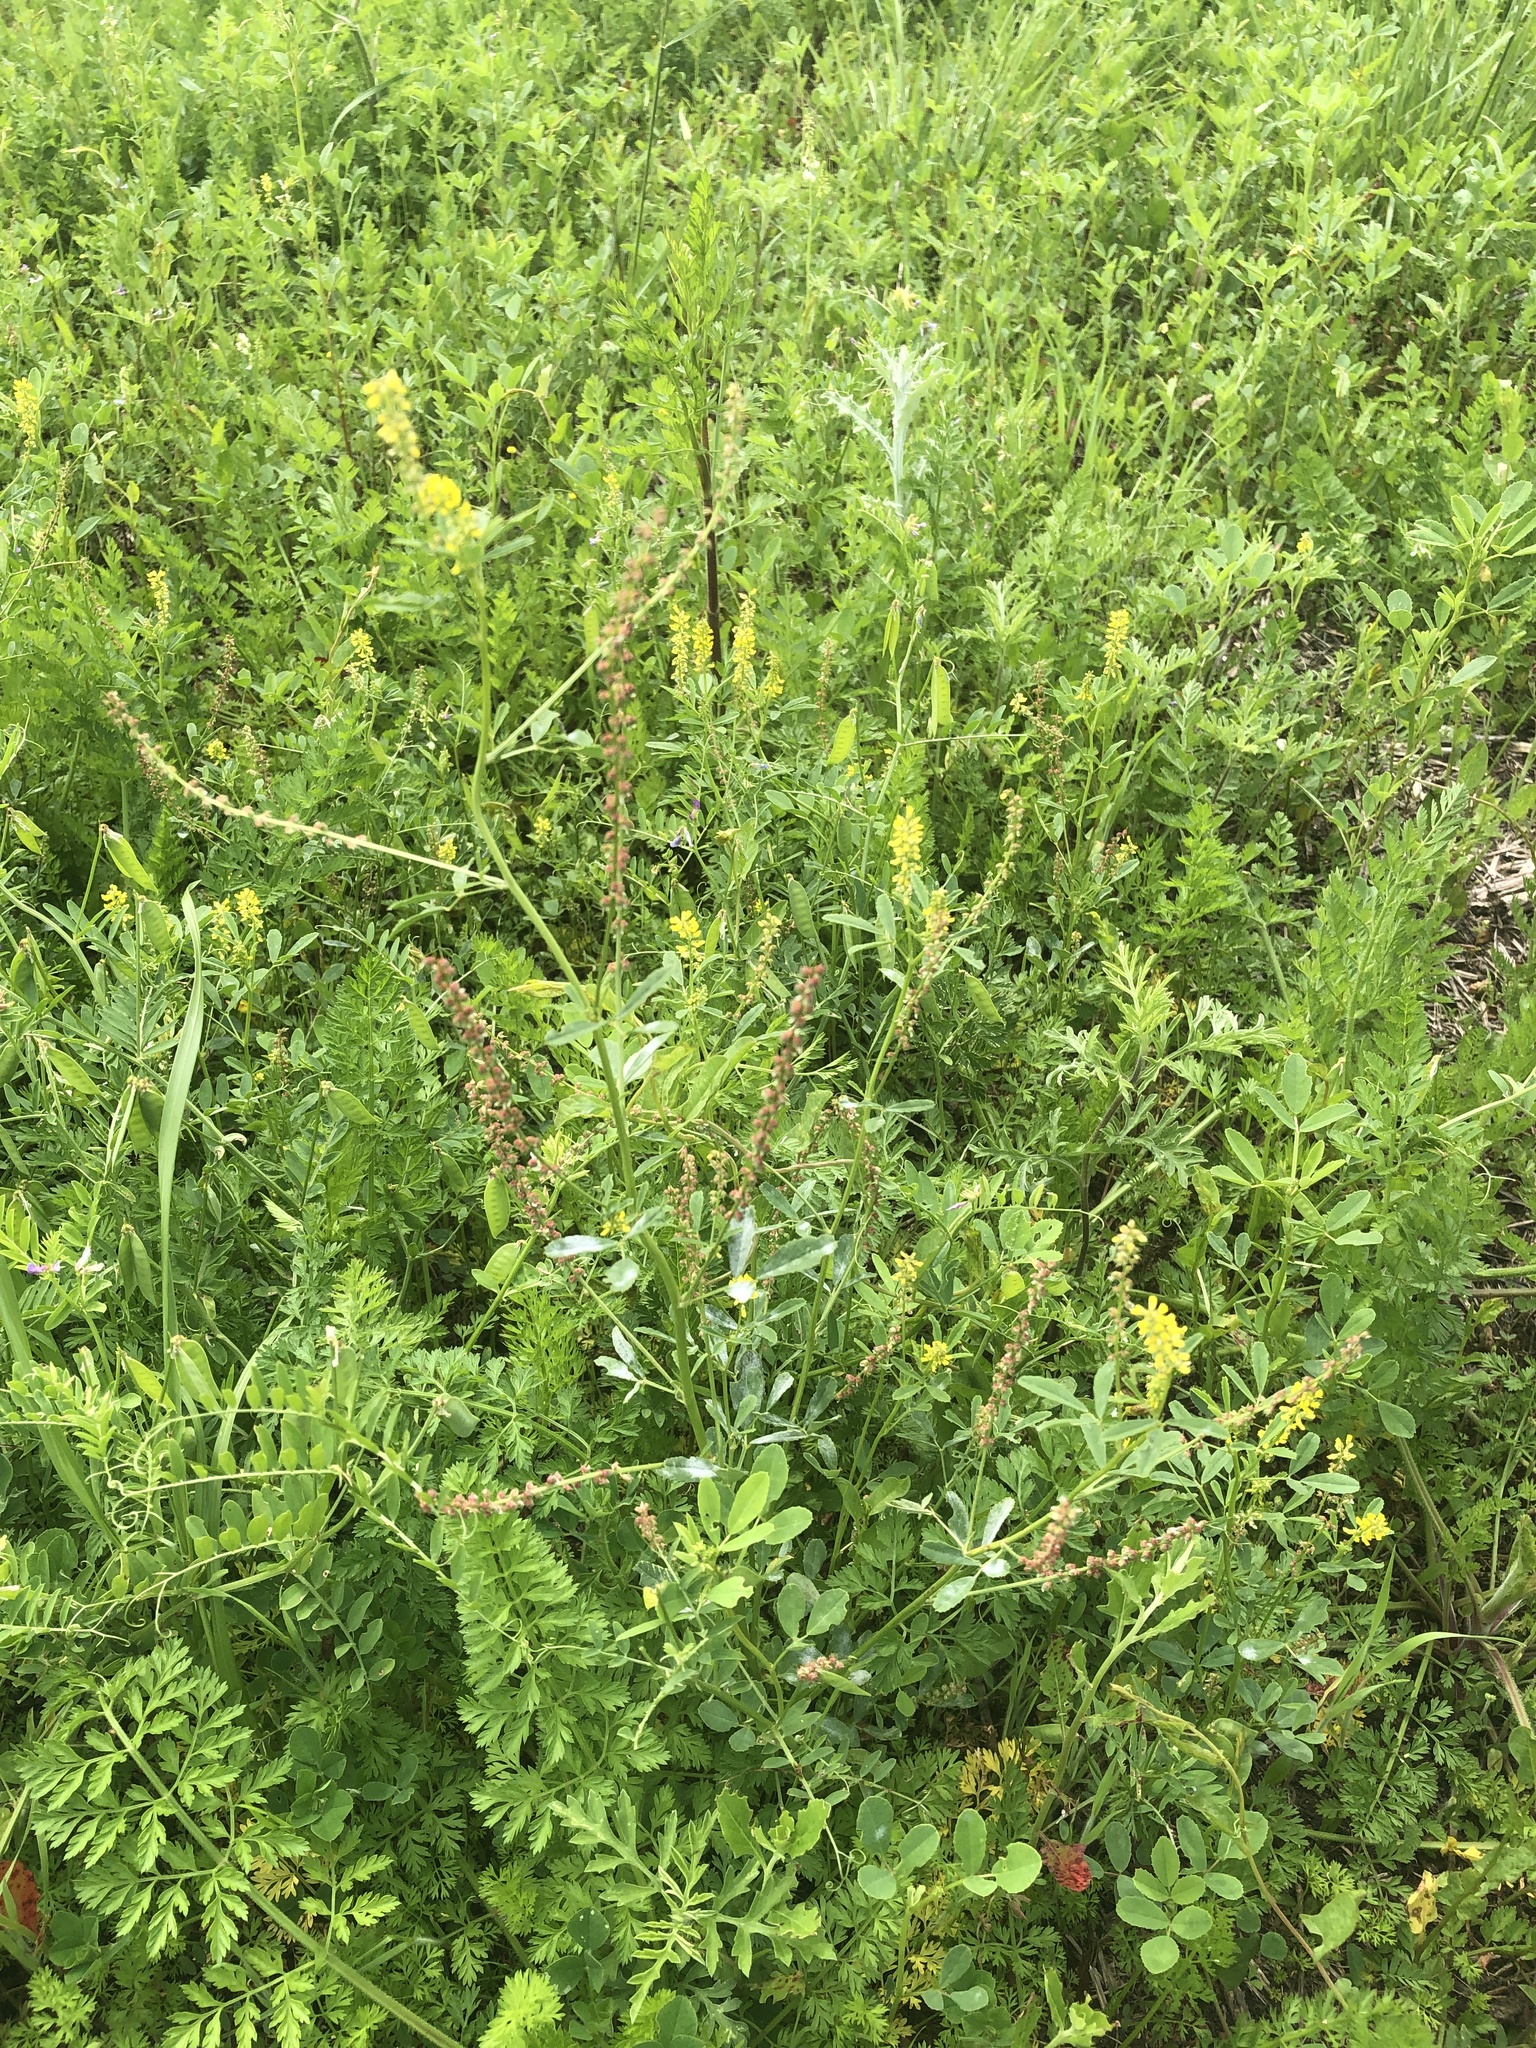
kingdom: Plantae
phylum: Tracheophyta
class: Magnoliopsida
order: Fabales
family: Fabaceae
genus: Melilotus
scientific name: Melilotus indicus
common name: Small melilot
